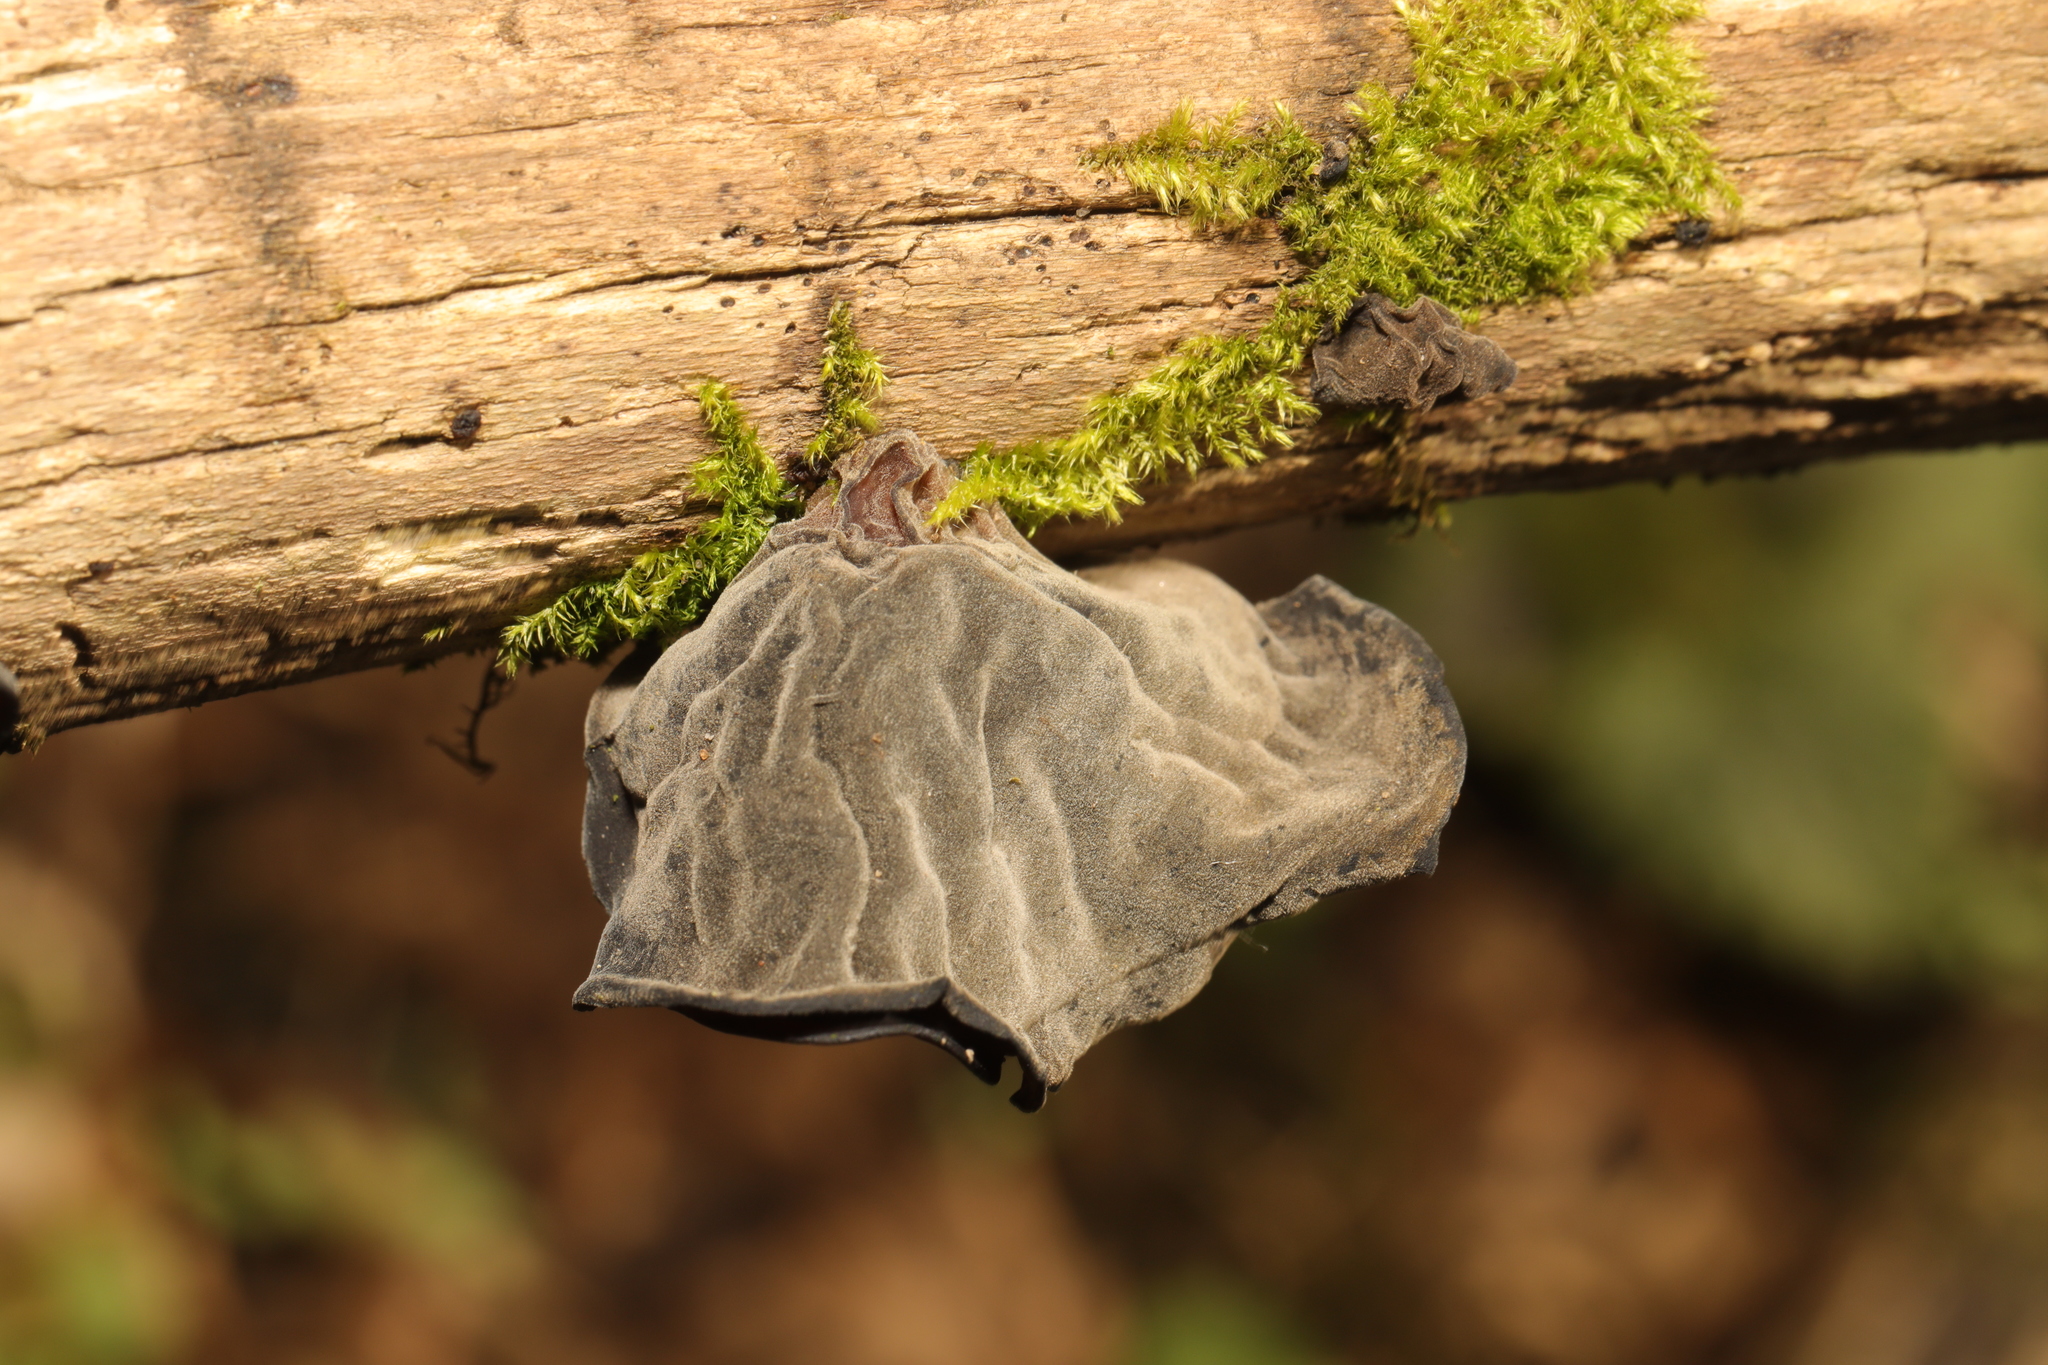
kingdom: Fungi
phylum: Basidiomycota
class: Agaricomycetes
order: Auriculariales
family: Auriculariaceae
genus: Auricularia
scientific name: Auricularia auricula-judae
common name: Jelly ear
